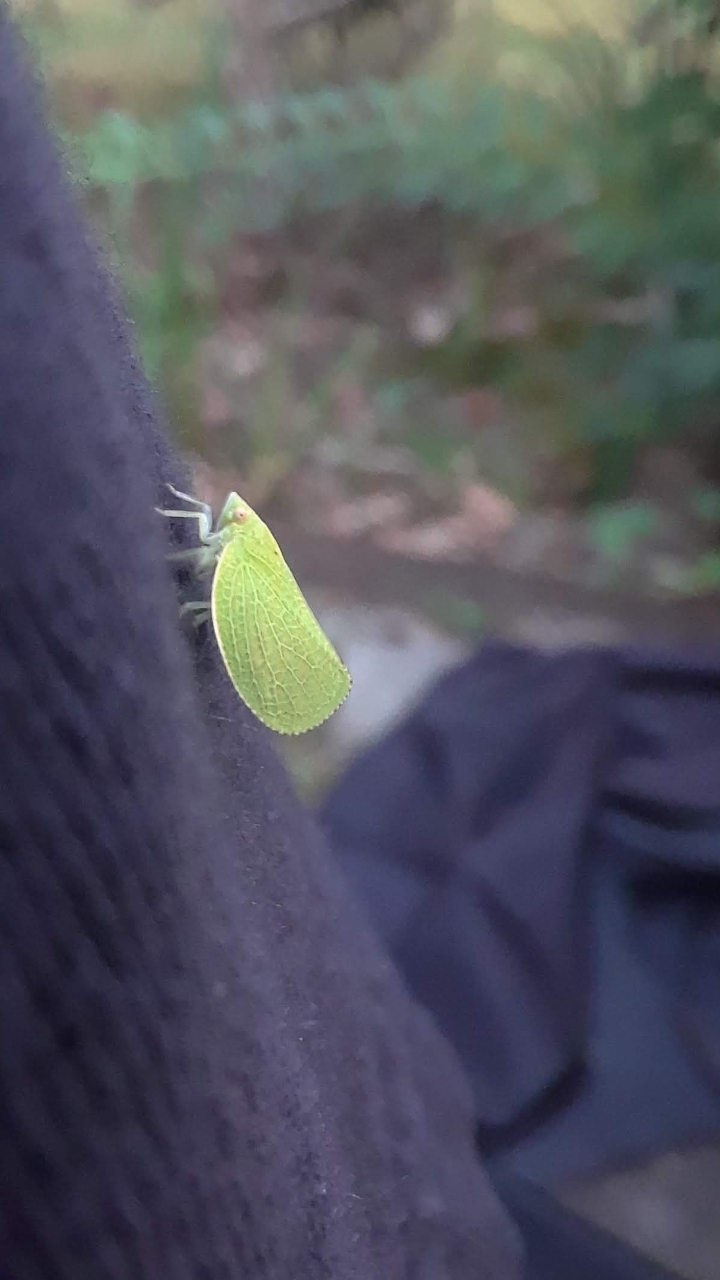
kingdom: Animalia
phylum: Arthropoda
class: Insecta
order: Hemiptera
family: Acanaloniidae
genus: Acanalonia
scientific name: Acanalonia conica
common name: Green cone-headed planthopper
